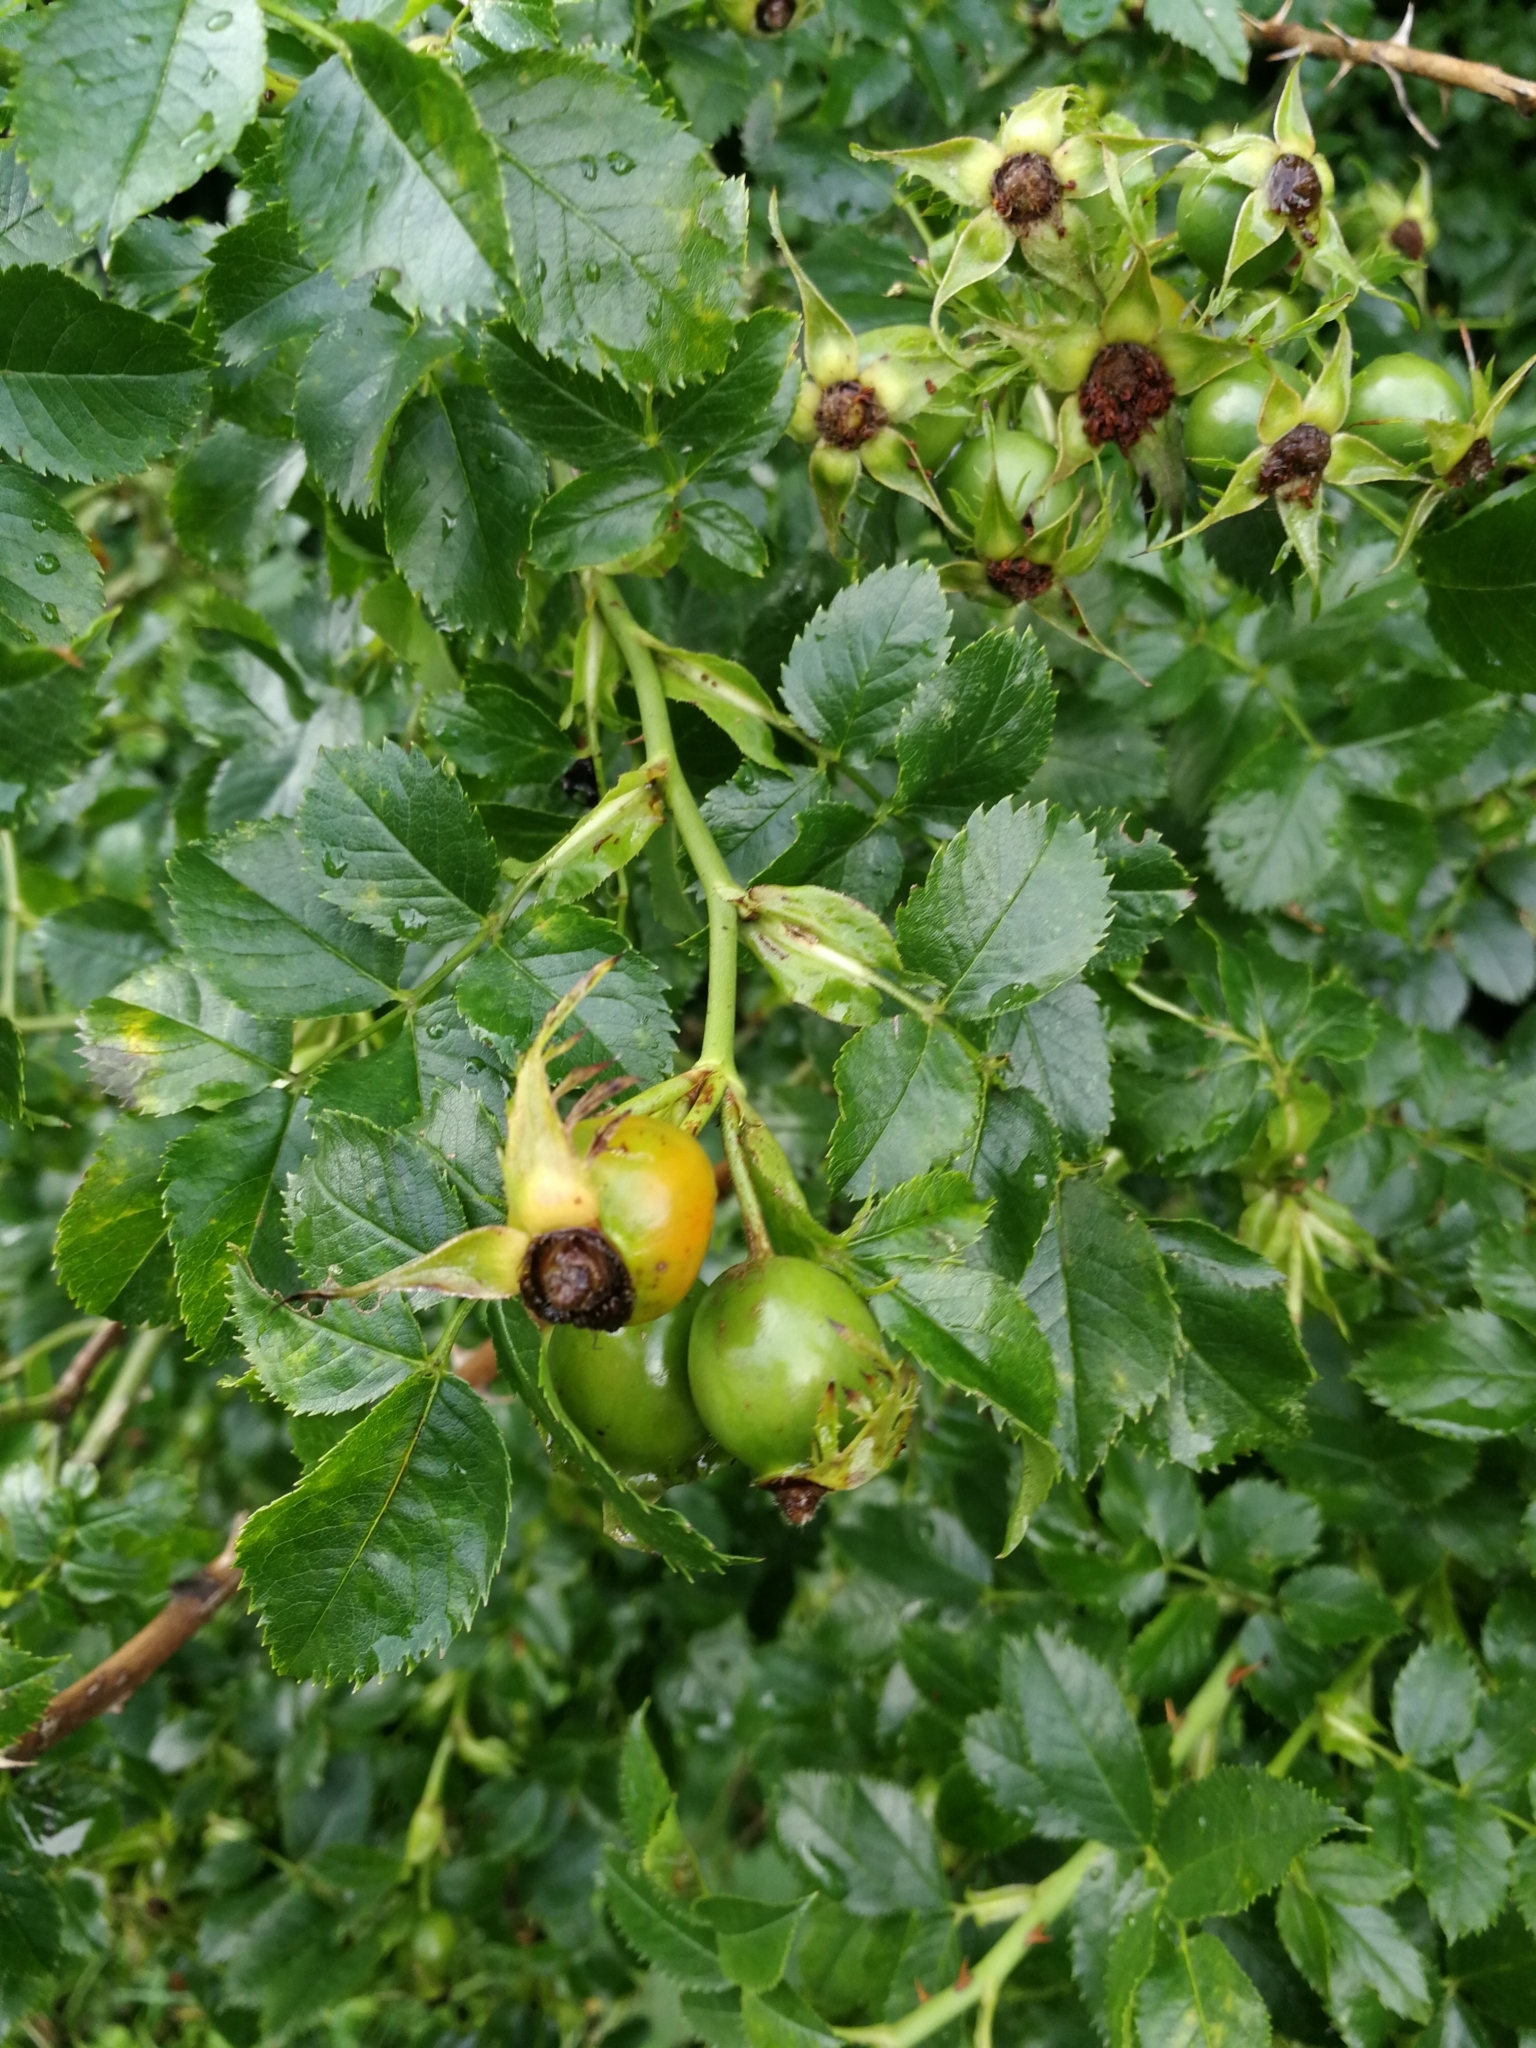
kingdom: Plantae
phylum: Tracheophyta
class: Magnoliopsida
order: Rosales
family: Rosaceae
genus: Rosa
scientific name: Rosa subcanina
